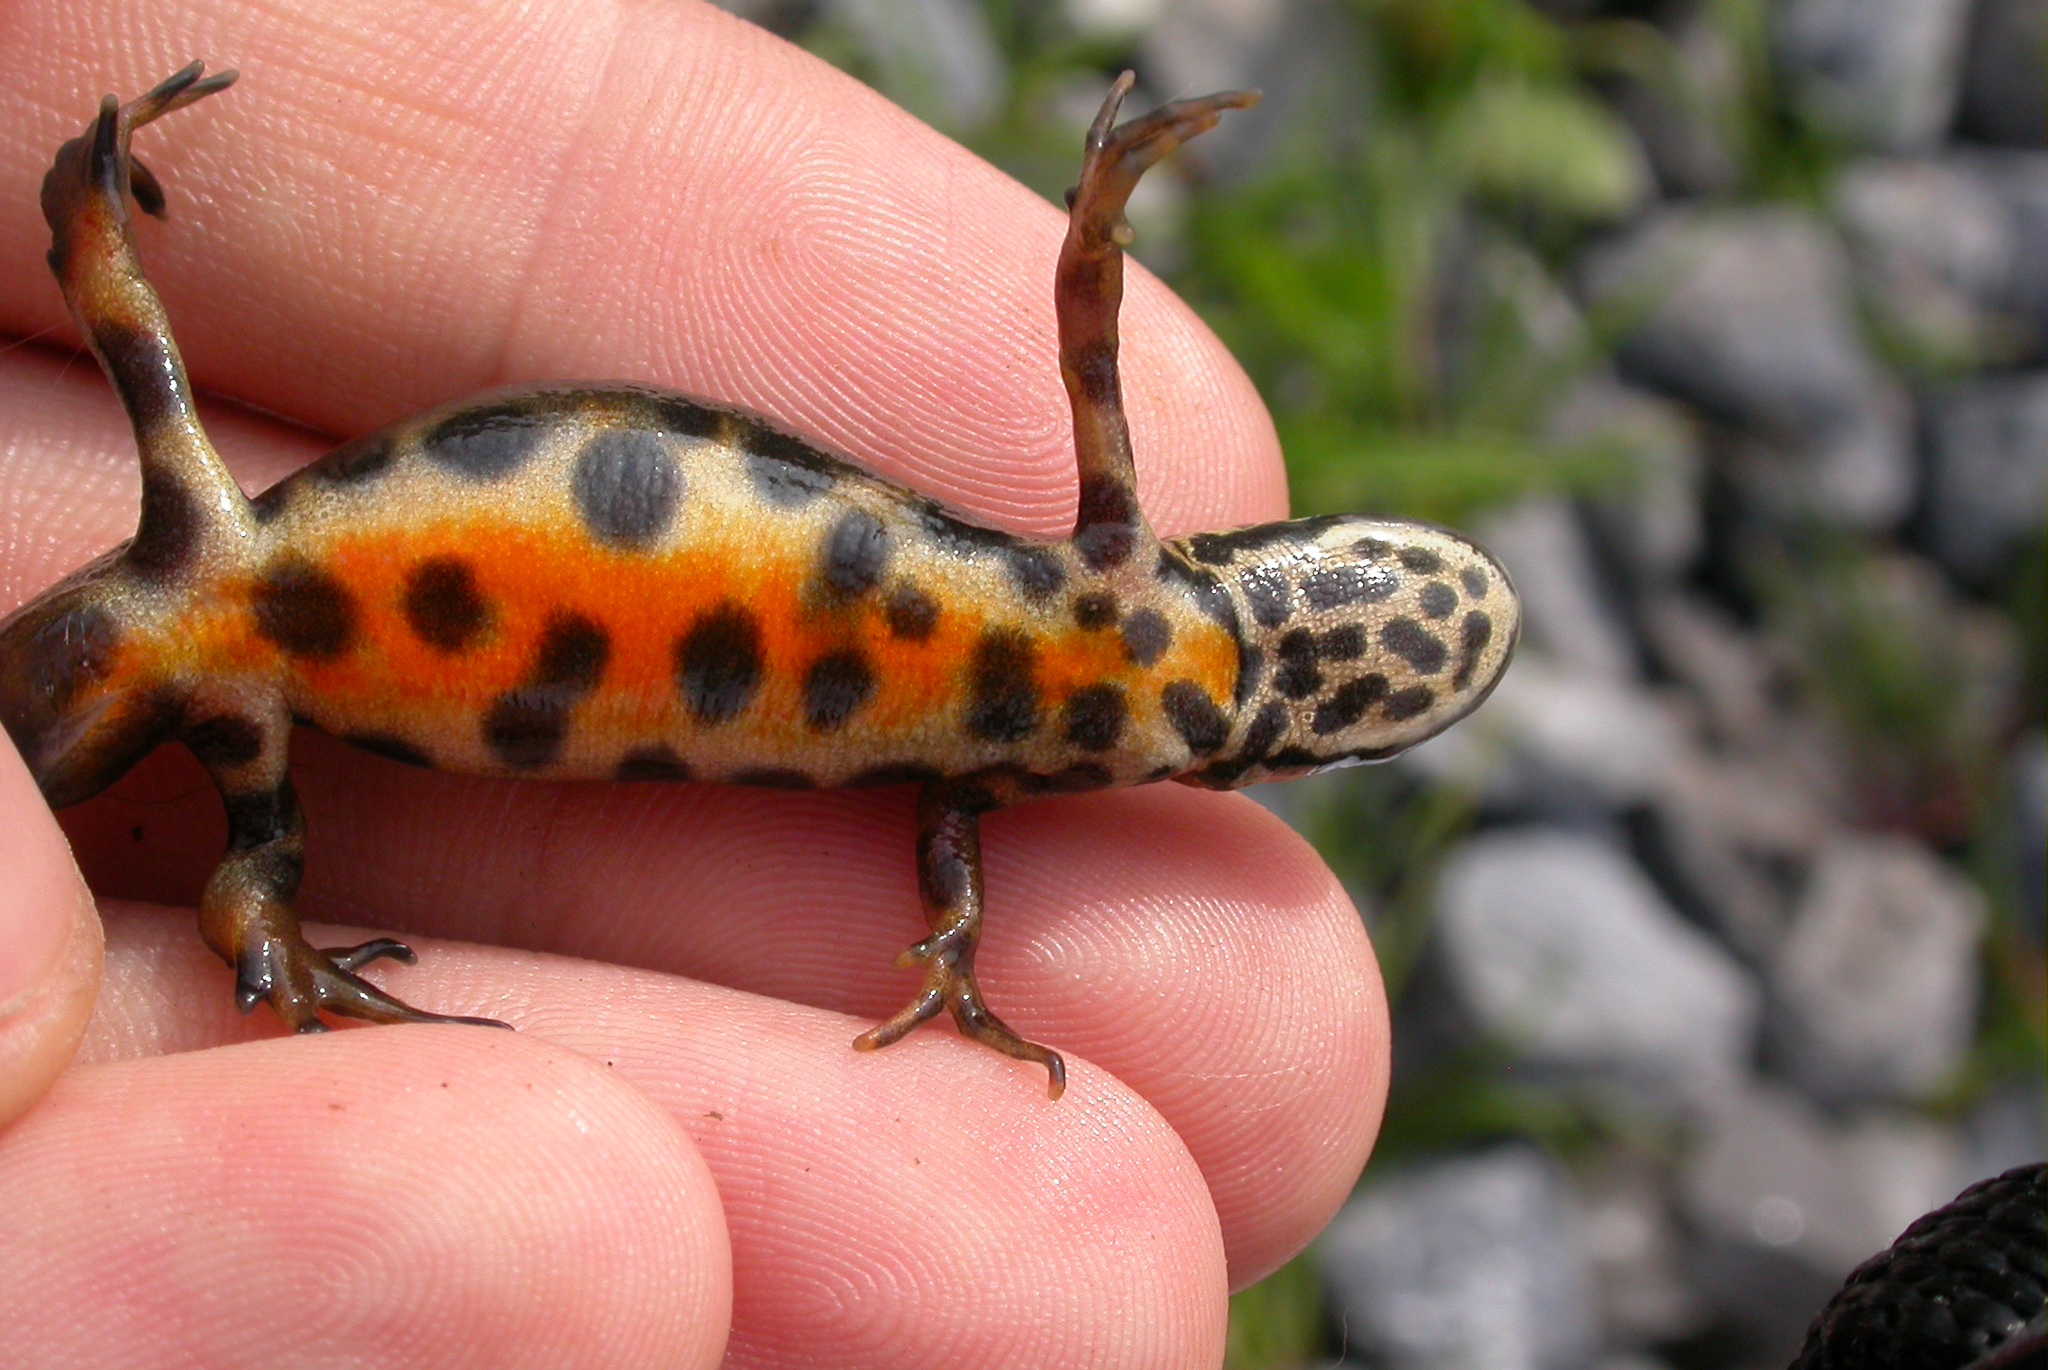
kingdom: Animalia
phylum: Chordata
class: Amphibia
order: Caudata
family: Salamandridae
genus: Lissotriton
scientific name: Lissotriton vulgaris
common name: Smooth newt
